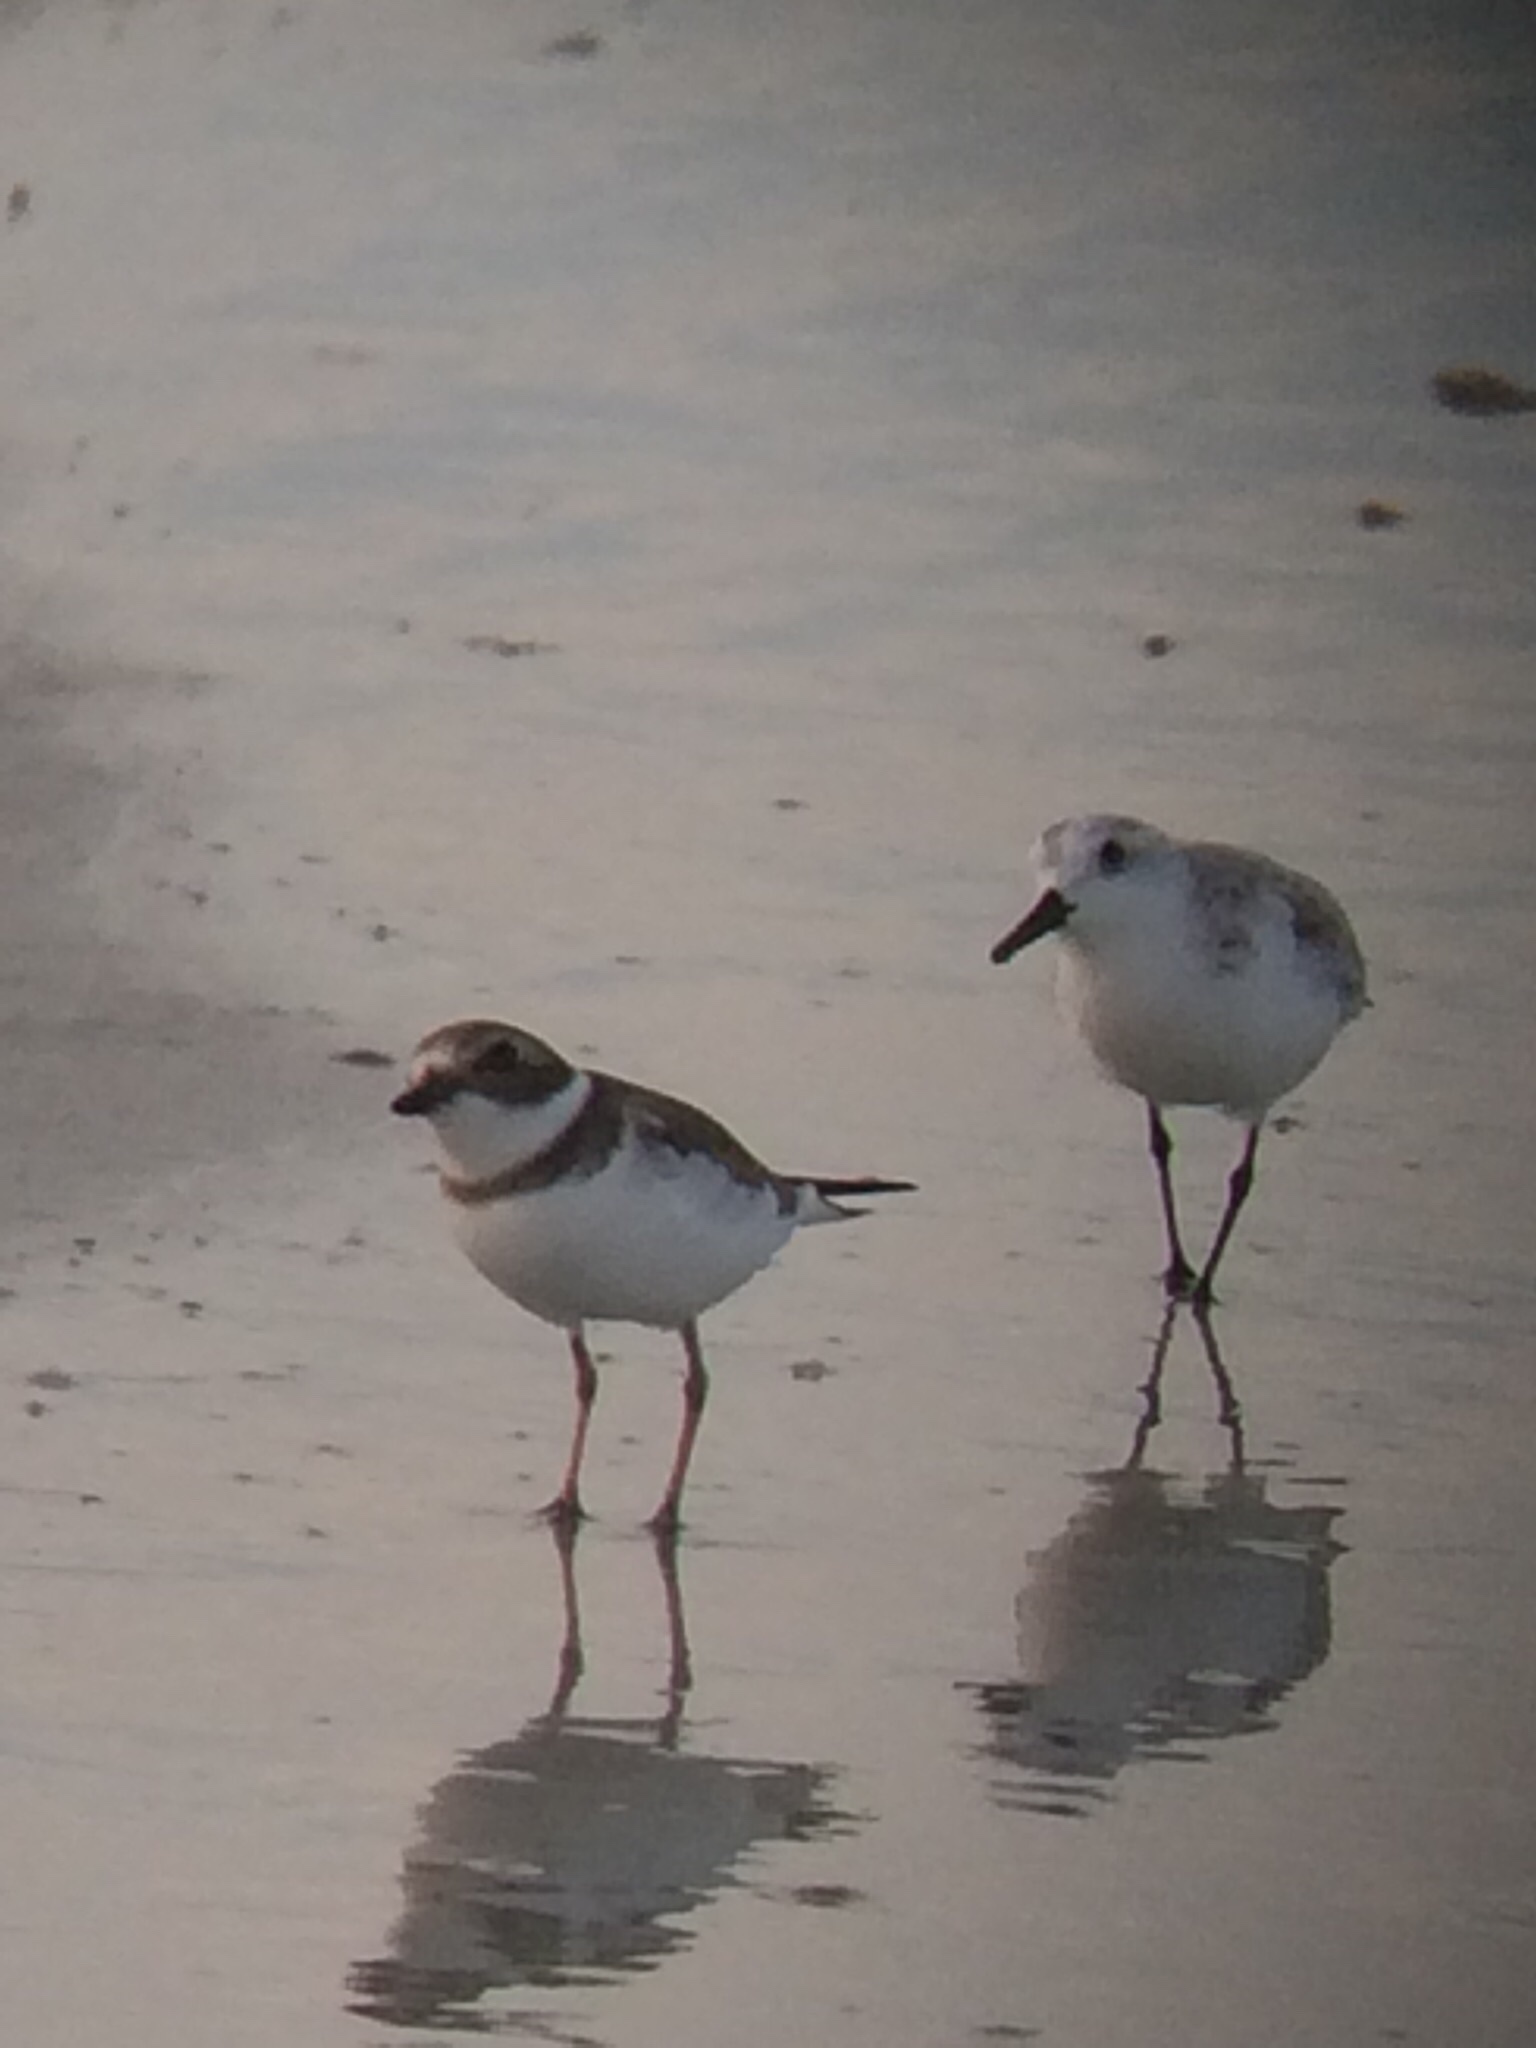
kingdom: Animalia
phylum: Chordata
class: Aves
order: Charadriiformes
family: Charadriidae
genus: Charadrius
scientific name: Charadrius semipalmatus
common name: Semipalmated plover
